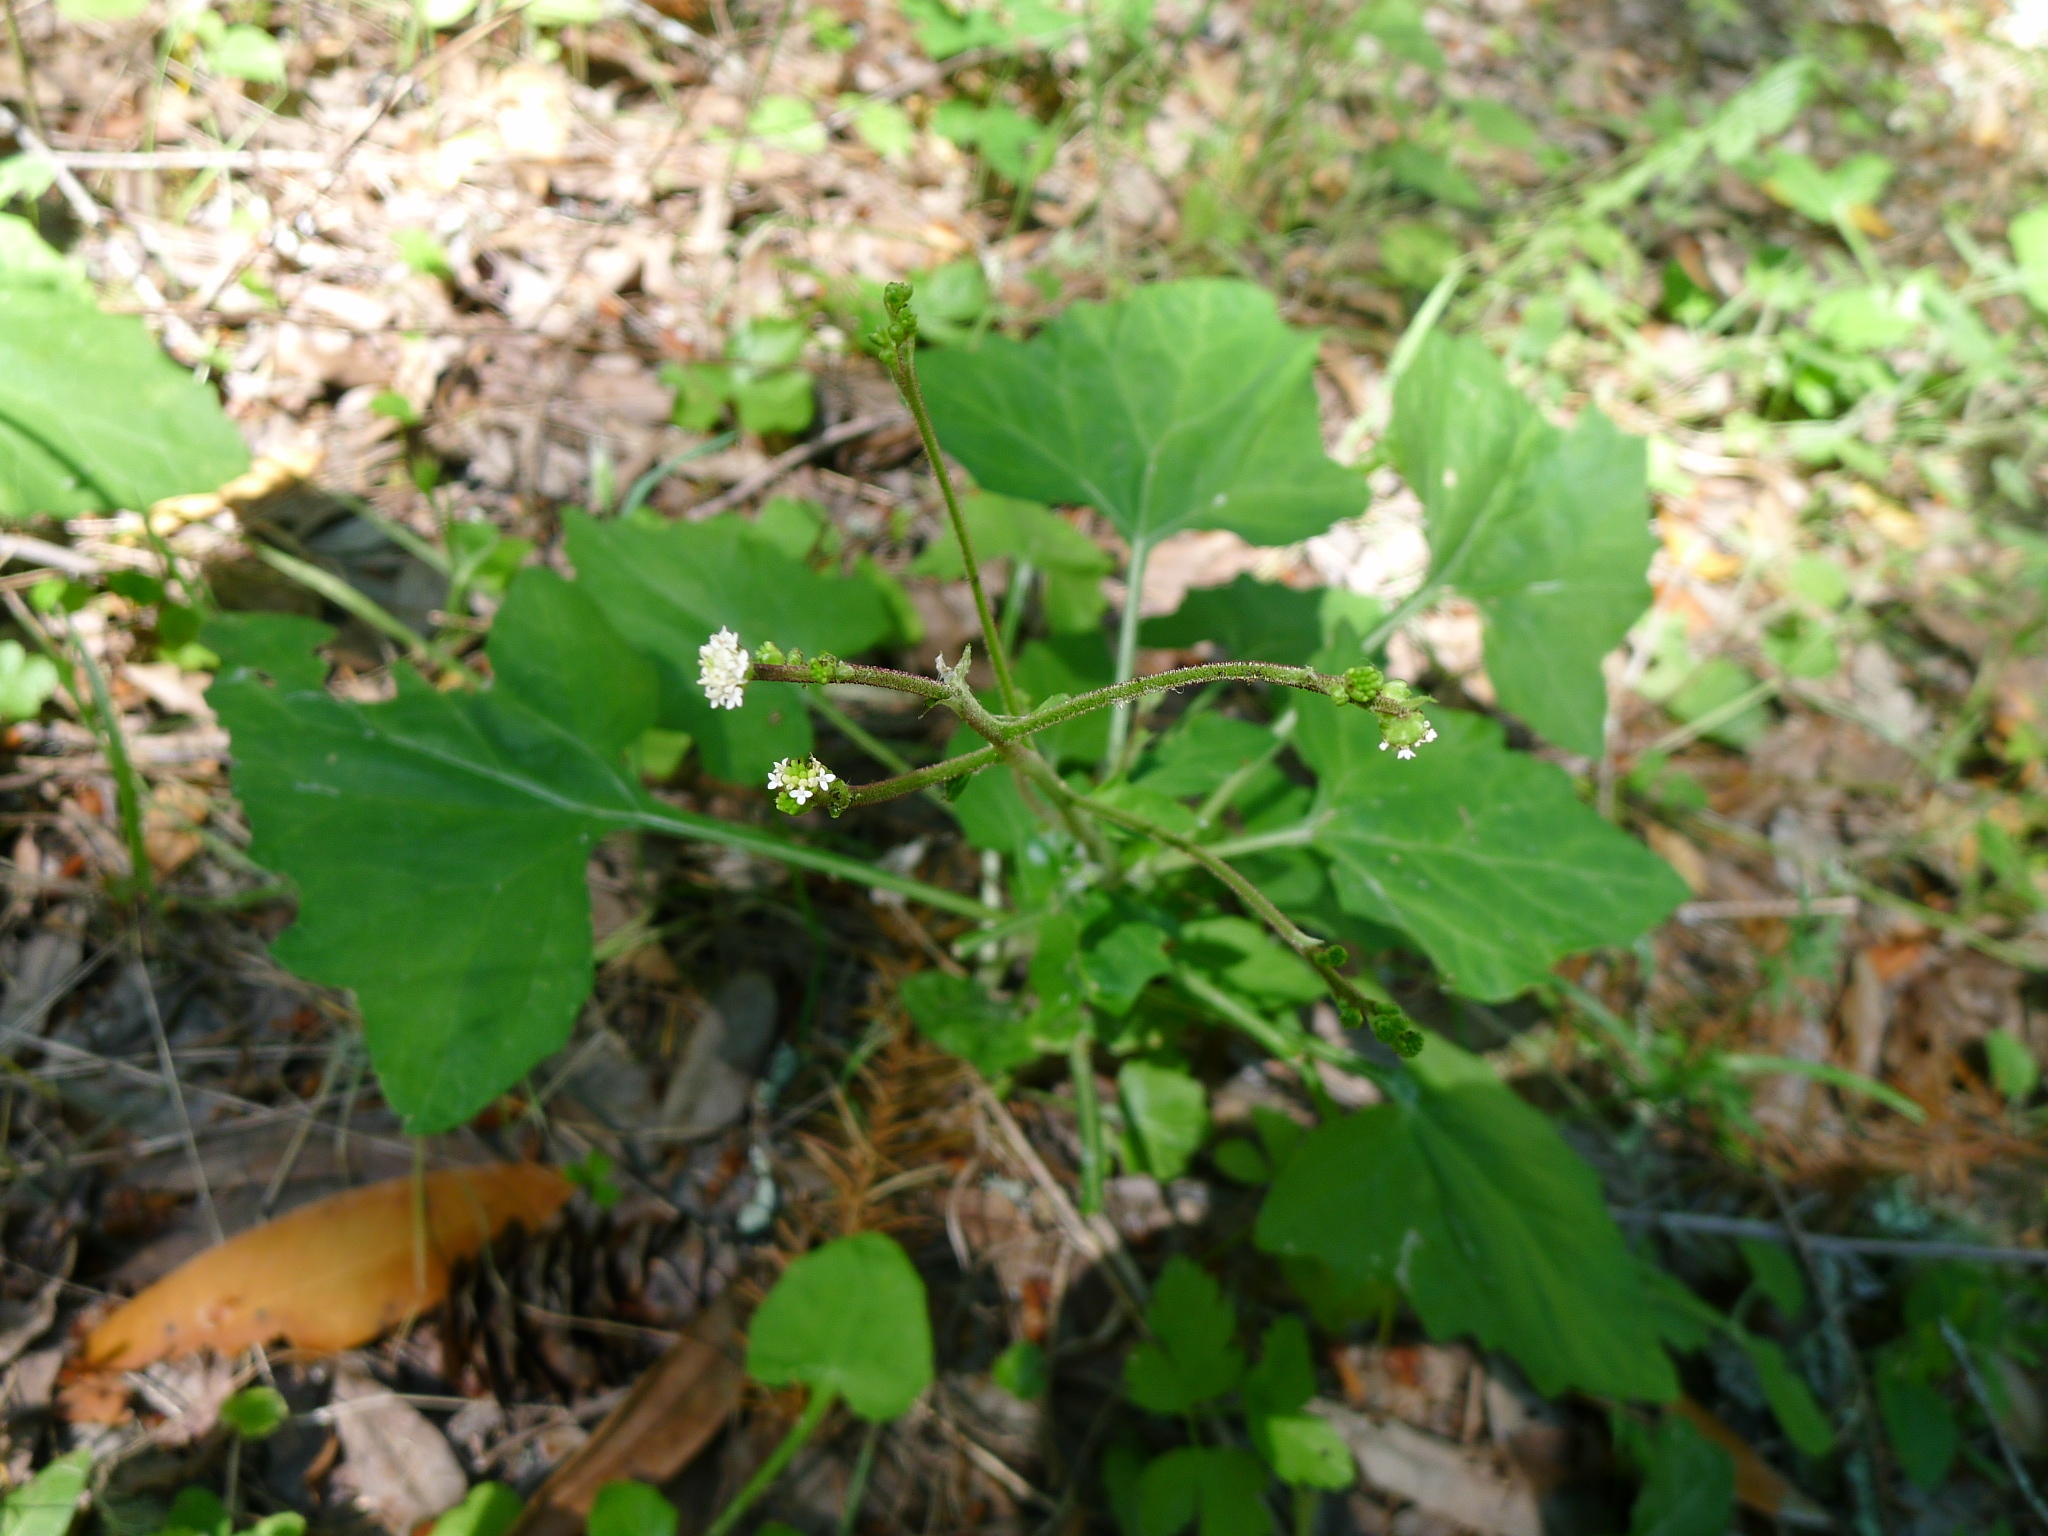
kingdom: Plantae
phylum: Tracheophyta
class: Magnoliopsida
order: Asterales
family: Asteraceae
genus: Adenocaulon
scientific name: Adenocaulon bicolor
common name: Trailplant
